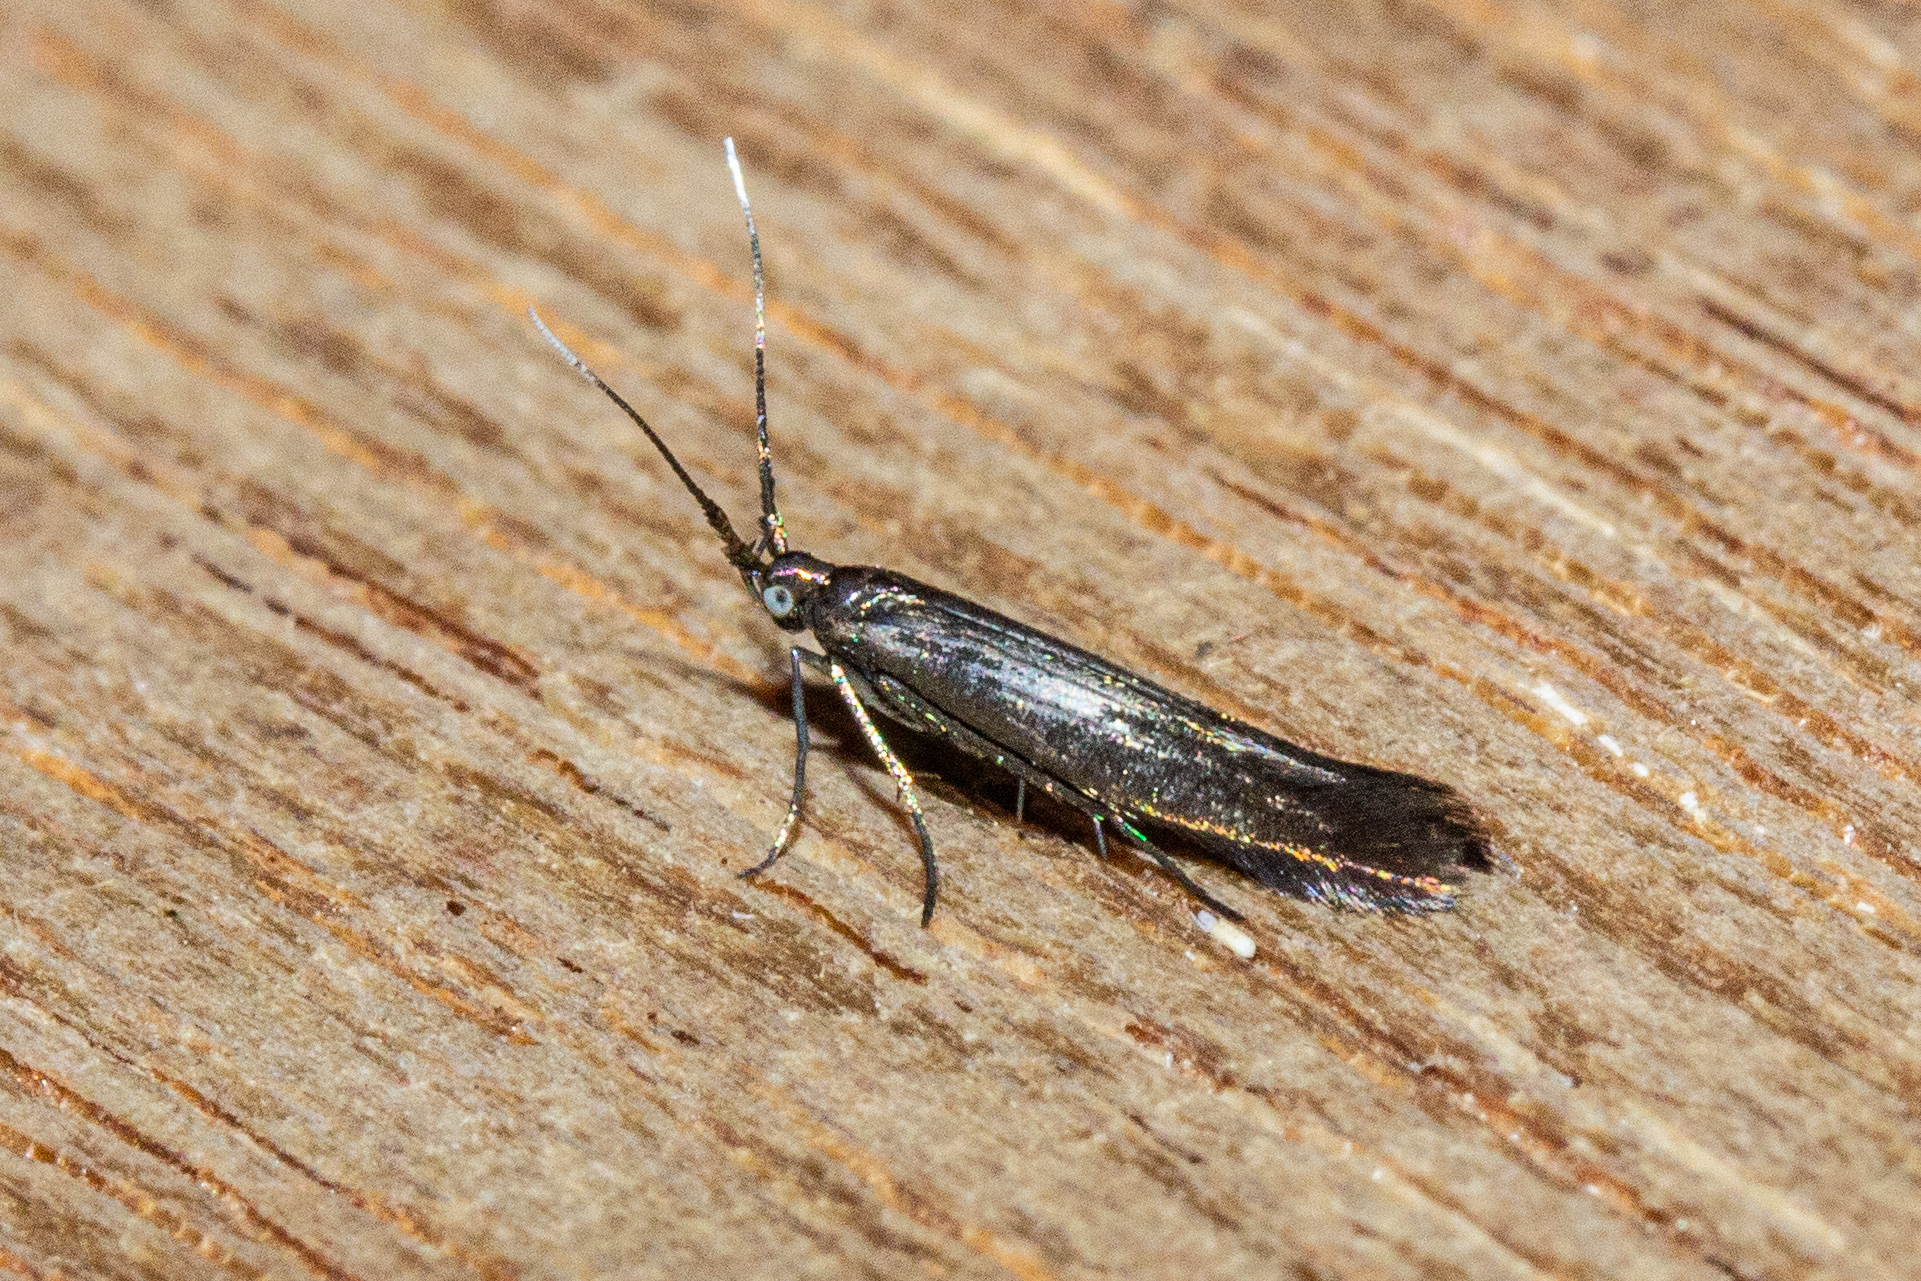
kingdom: Animalia
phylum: Arthropoda
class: Insecta
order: Lepidoptera
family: Coleophoridae
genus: Coleophora
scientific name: Coleophora alcyonipennella
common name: Clover case-bearer
